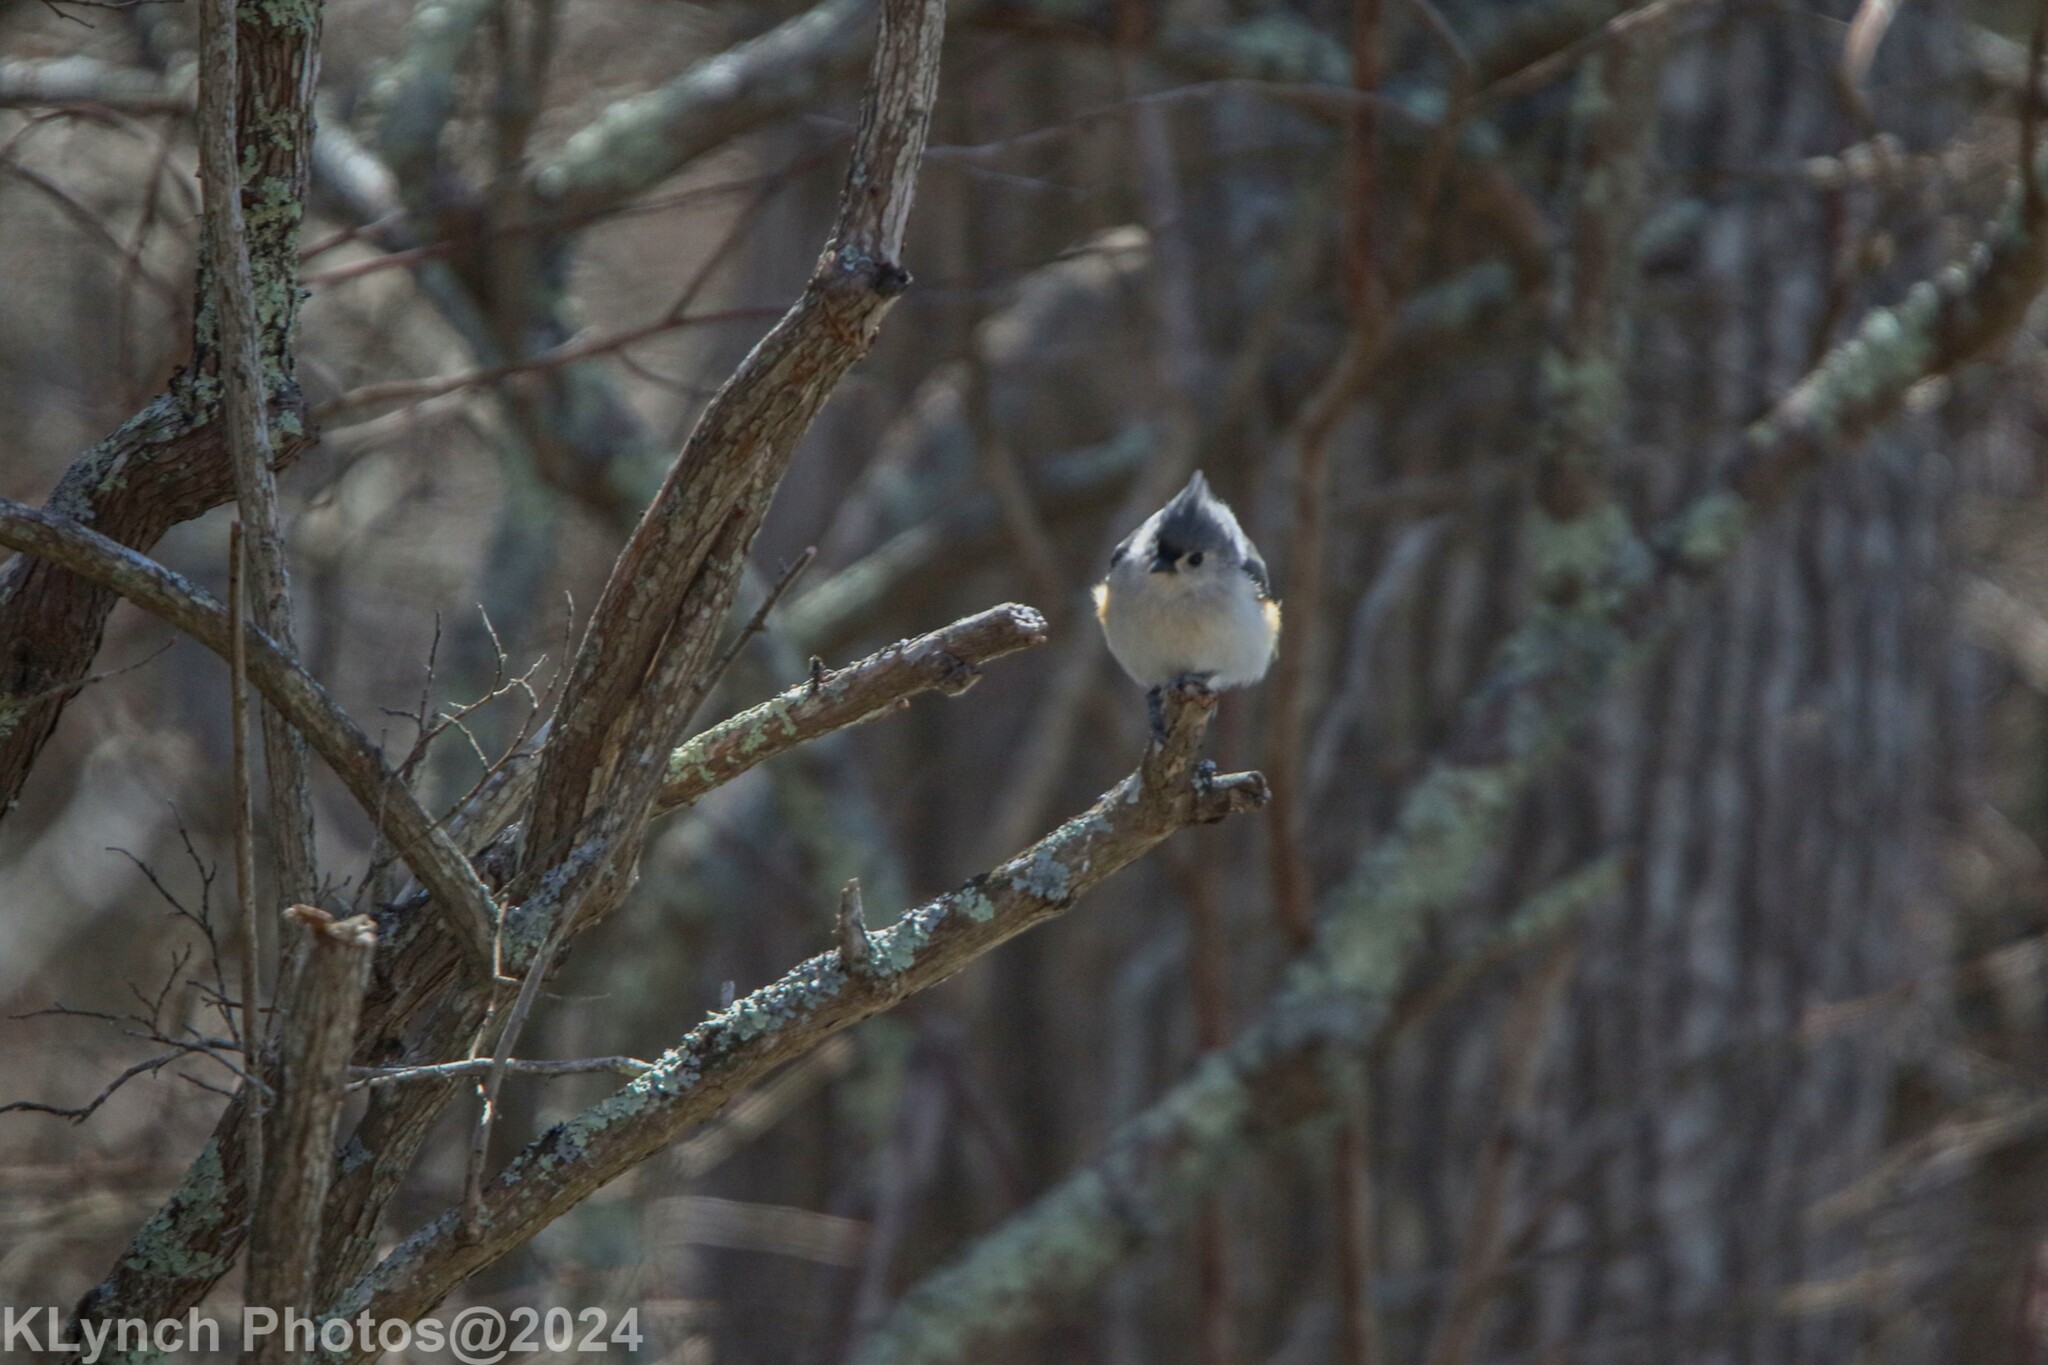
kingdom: Animalia
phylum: Chordata
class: Aves
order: Passeriformes
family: Paridae
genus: Baeolophus
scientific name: Baeolophus bicolor
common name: Tufted titmouse
